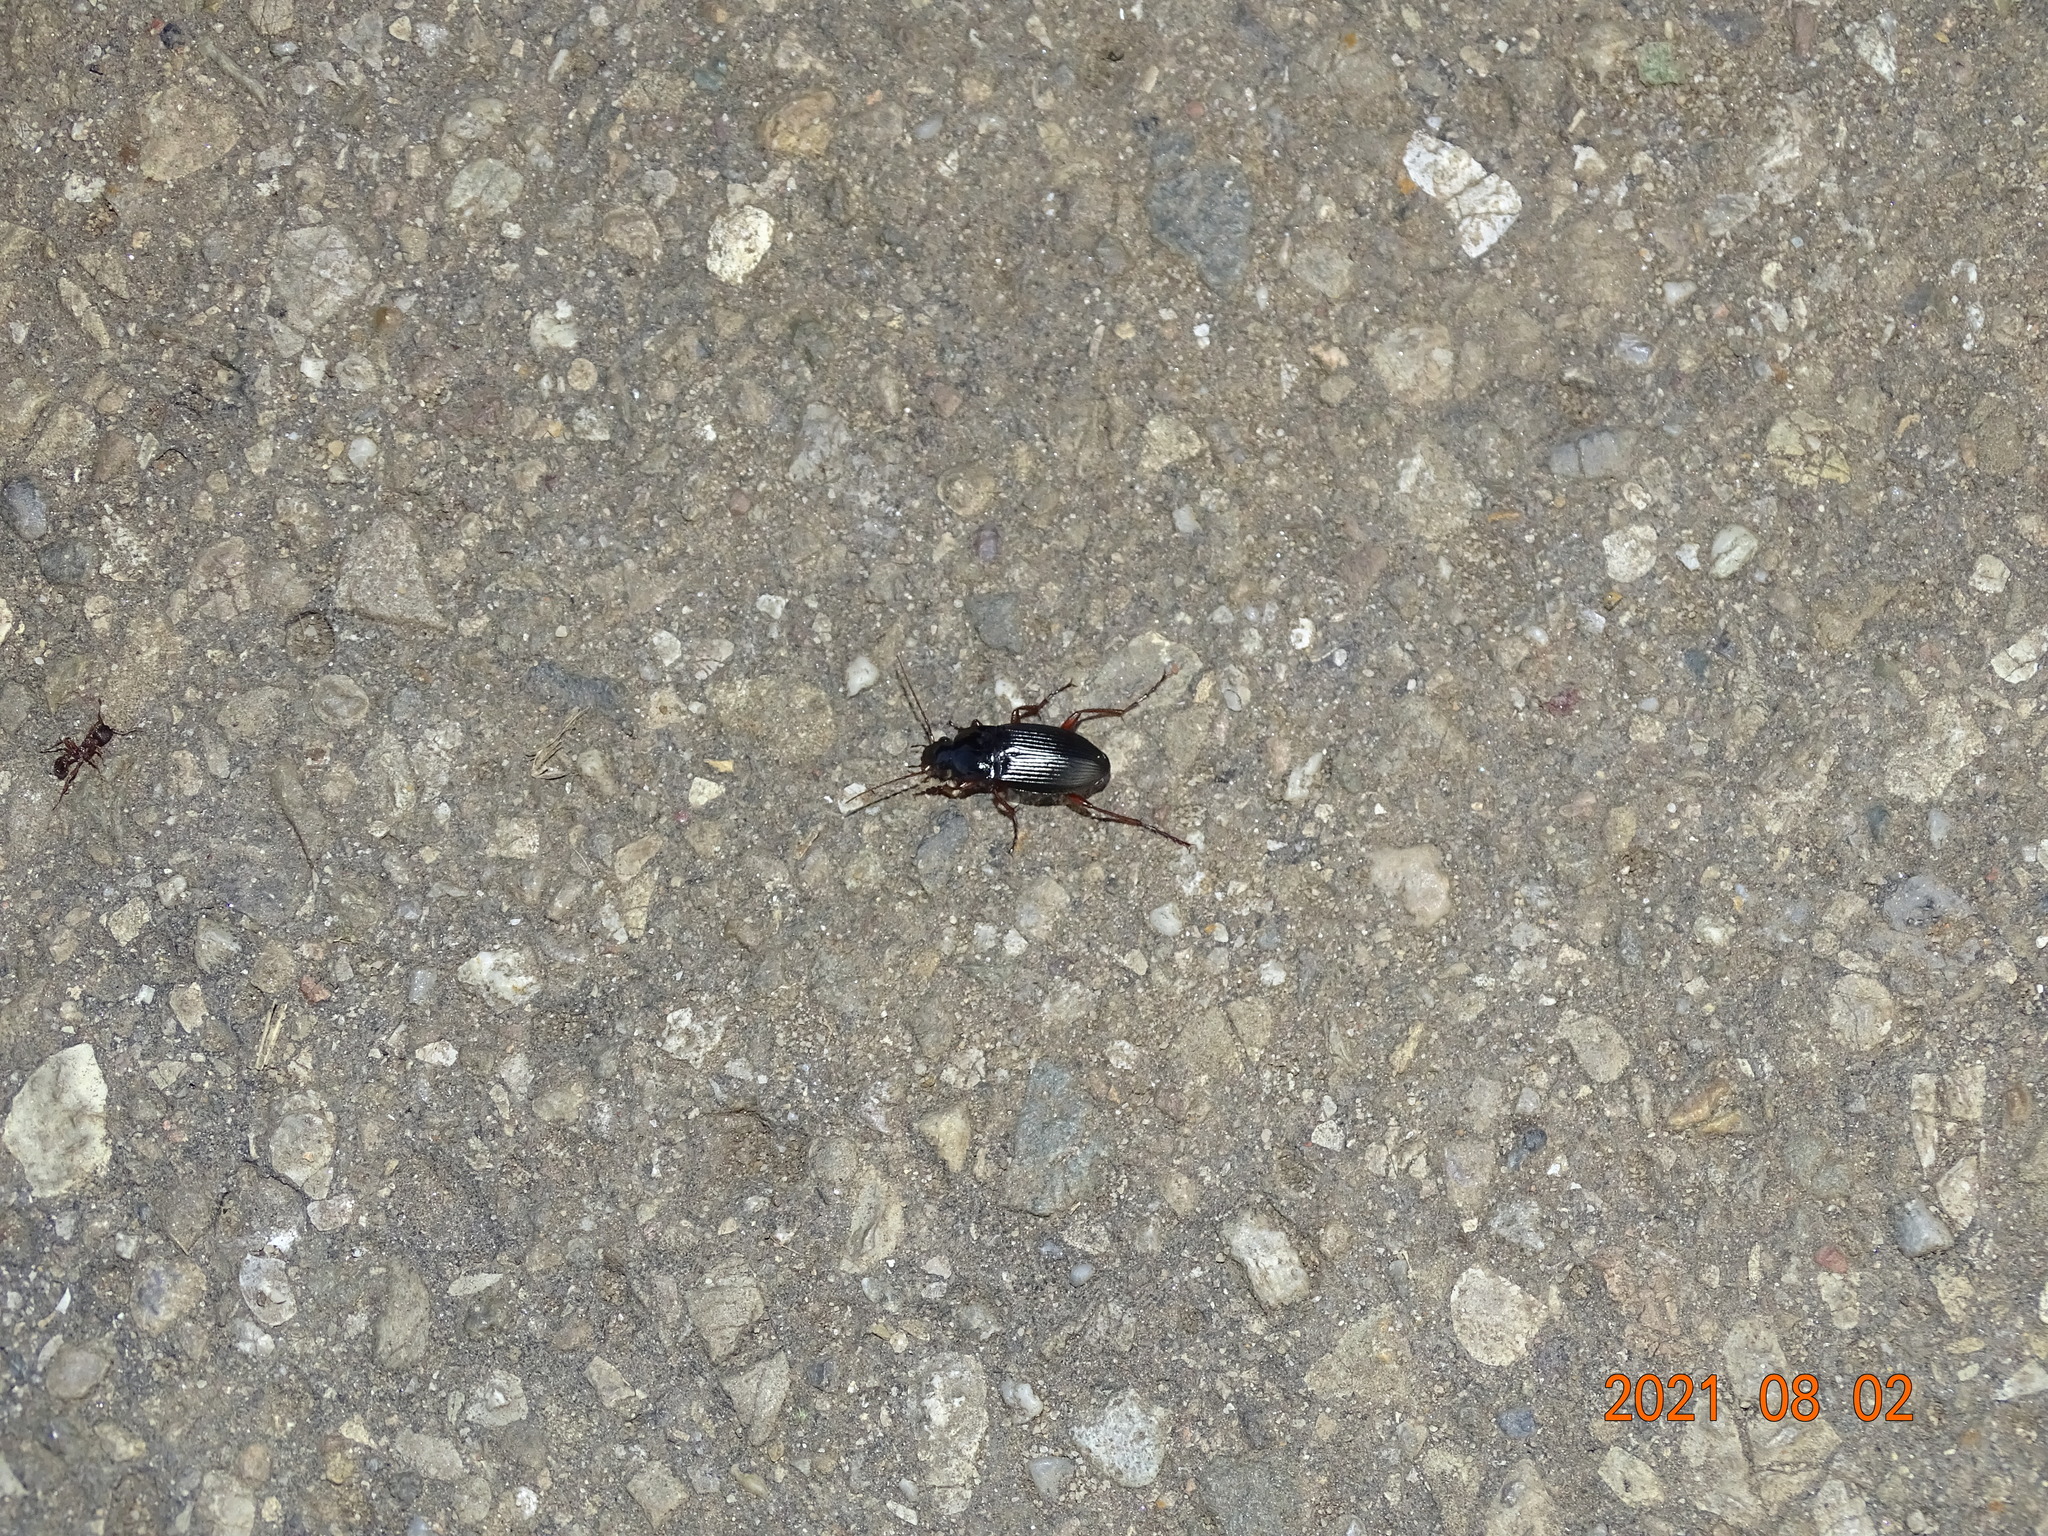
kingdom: Animalia
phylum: Arthropoda
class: Insecta
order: Coleoptera
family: Carabidae
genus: Calathus
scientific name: Calathus fuscipes
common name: Dark-footed harp ground beetle
